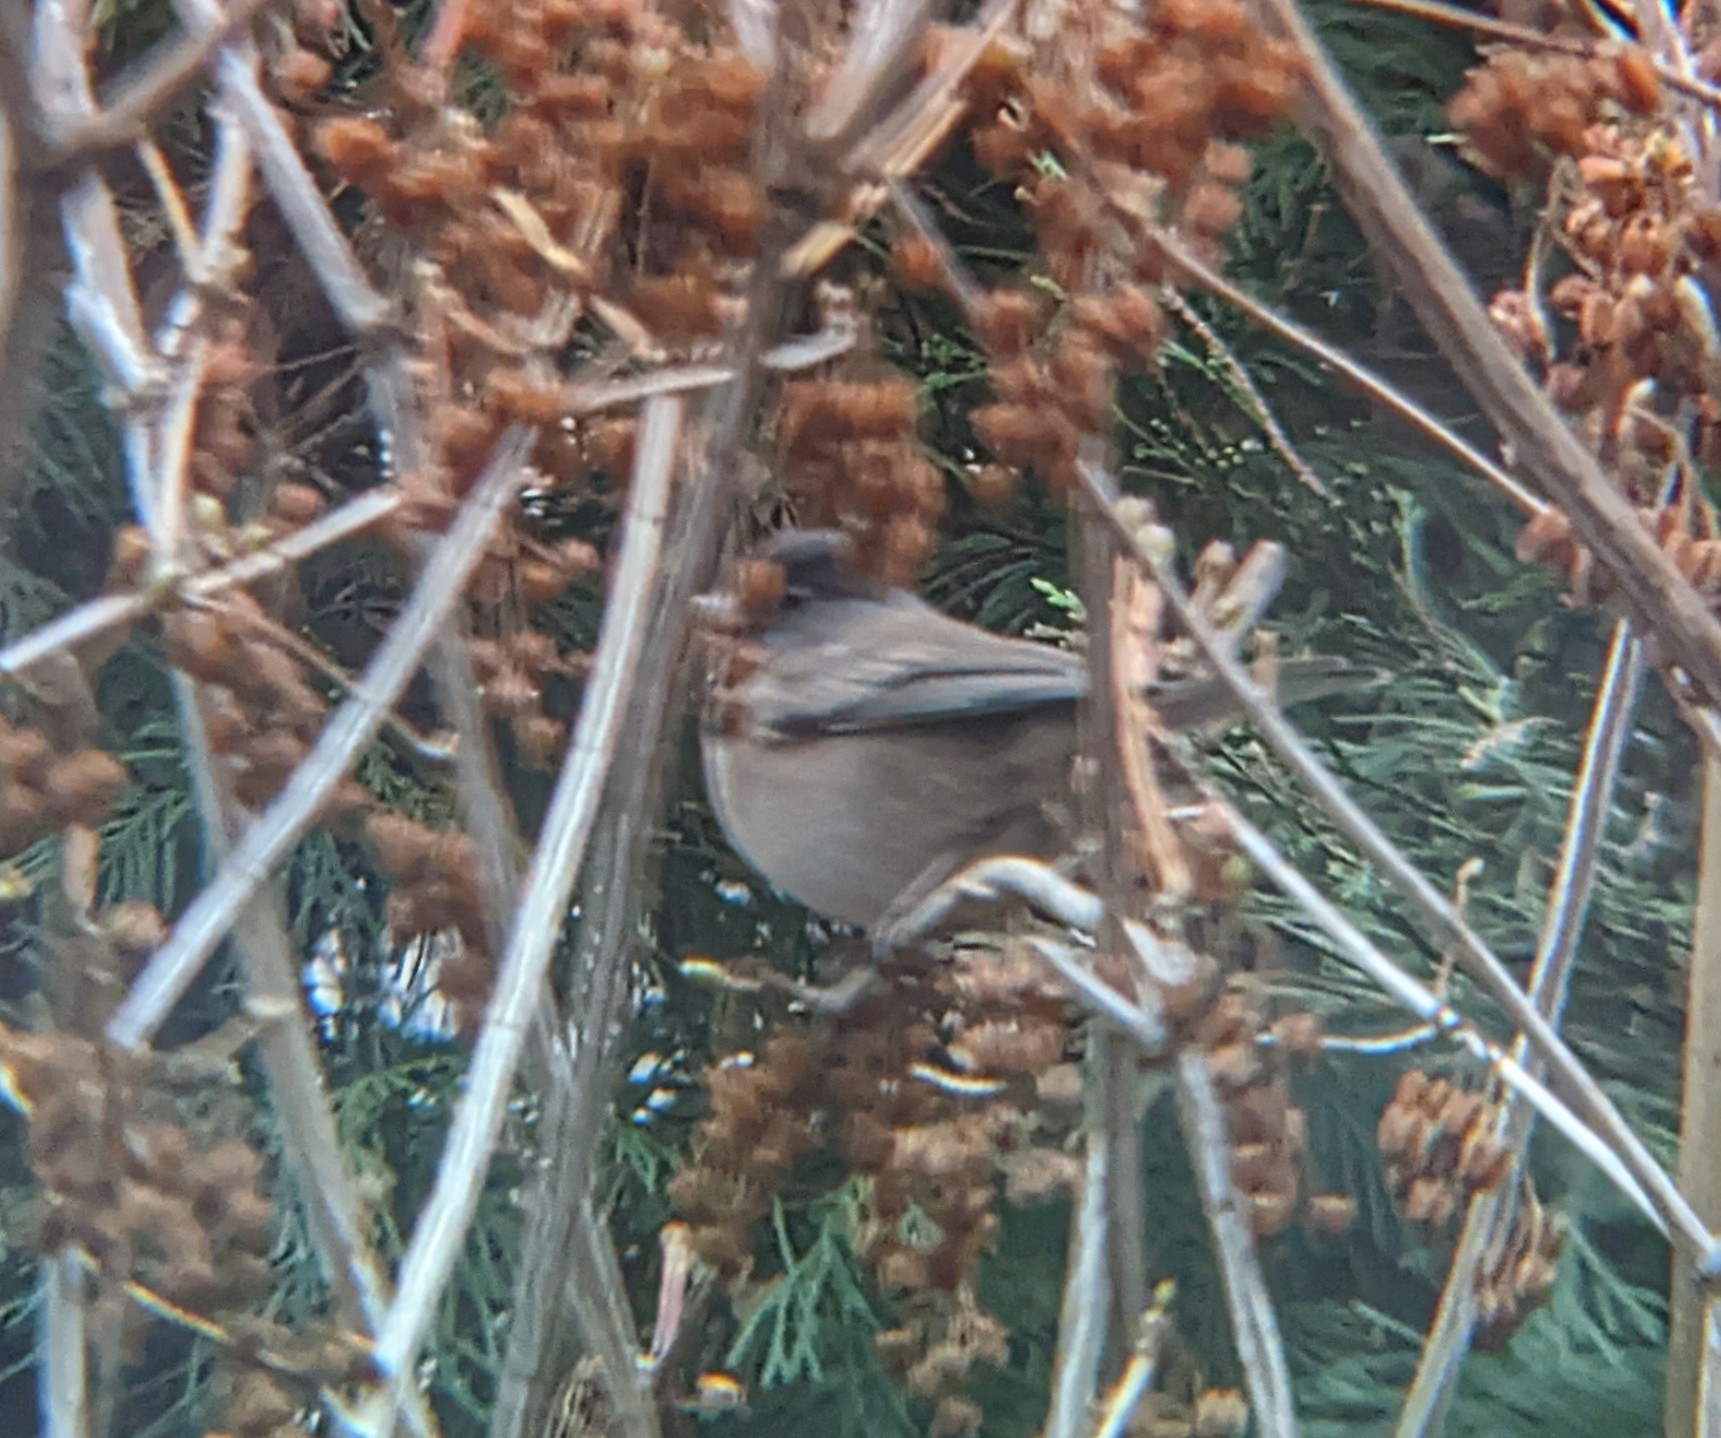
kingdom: Animalia
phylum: Chordata
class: Aves
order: Passeriformes
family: Passerellidae
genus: Junco
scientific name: Junco hyemalis
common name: Dark-eyed junco
